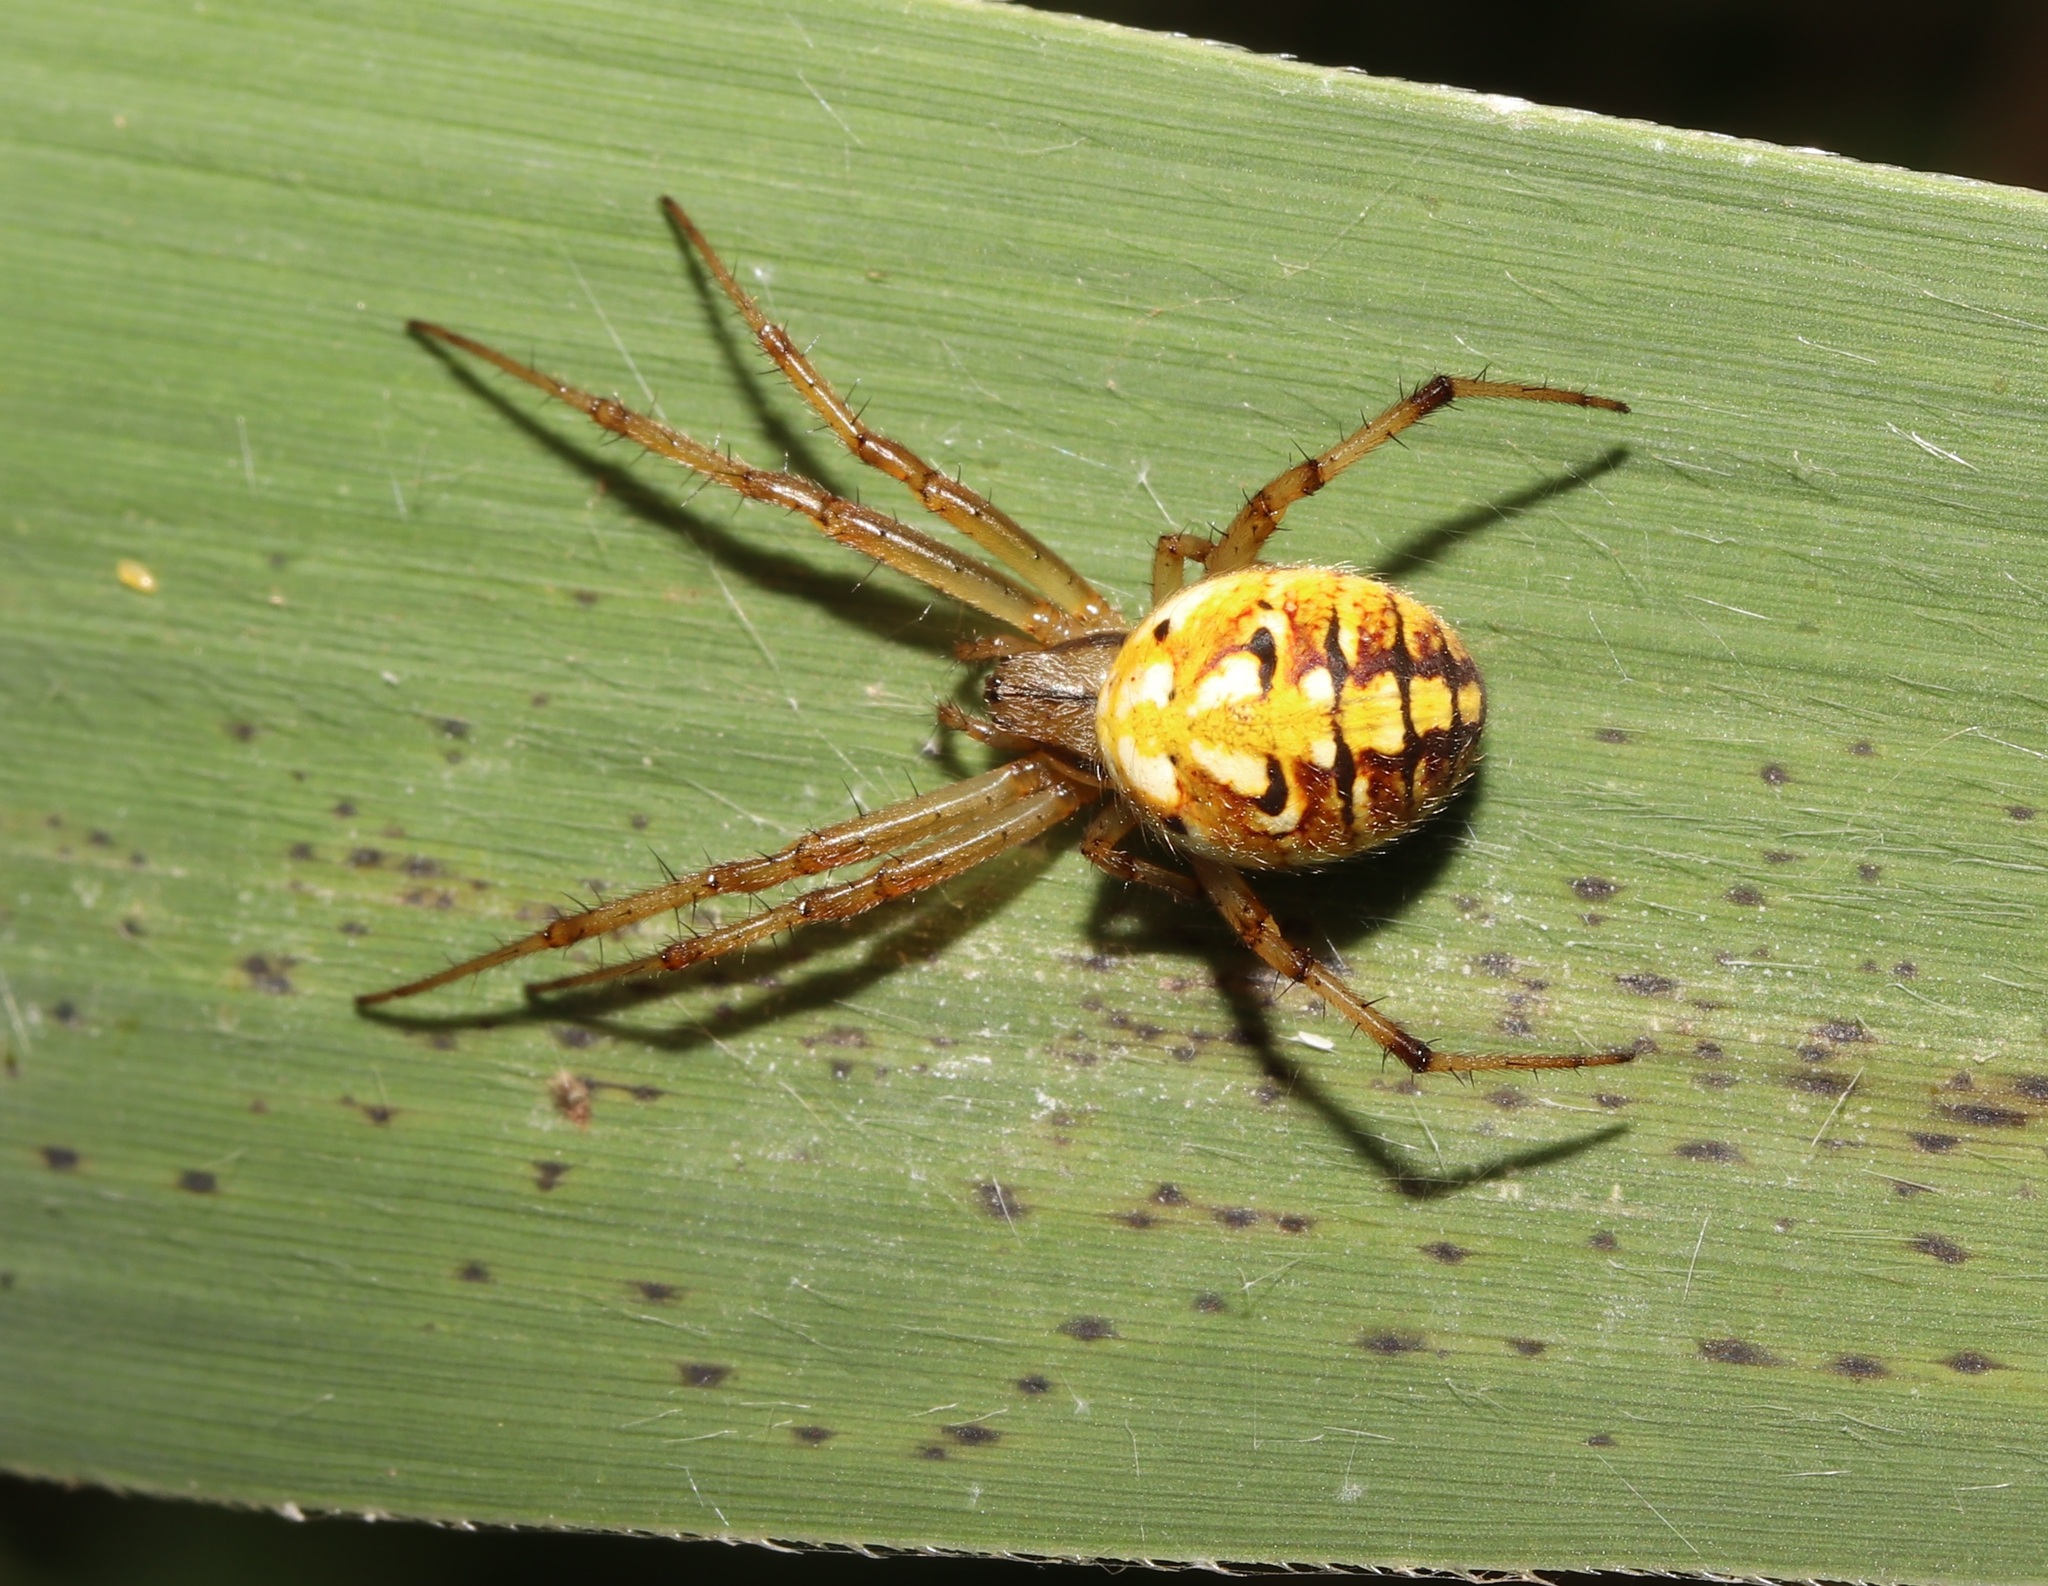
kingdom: Animalia
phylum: Arthropoda
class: Arachnida
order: Araneae
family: Araneidae
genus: Neoscona
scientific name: Neoscona adianta
